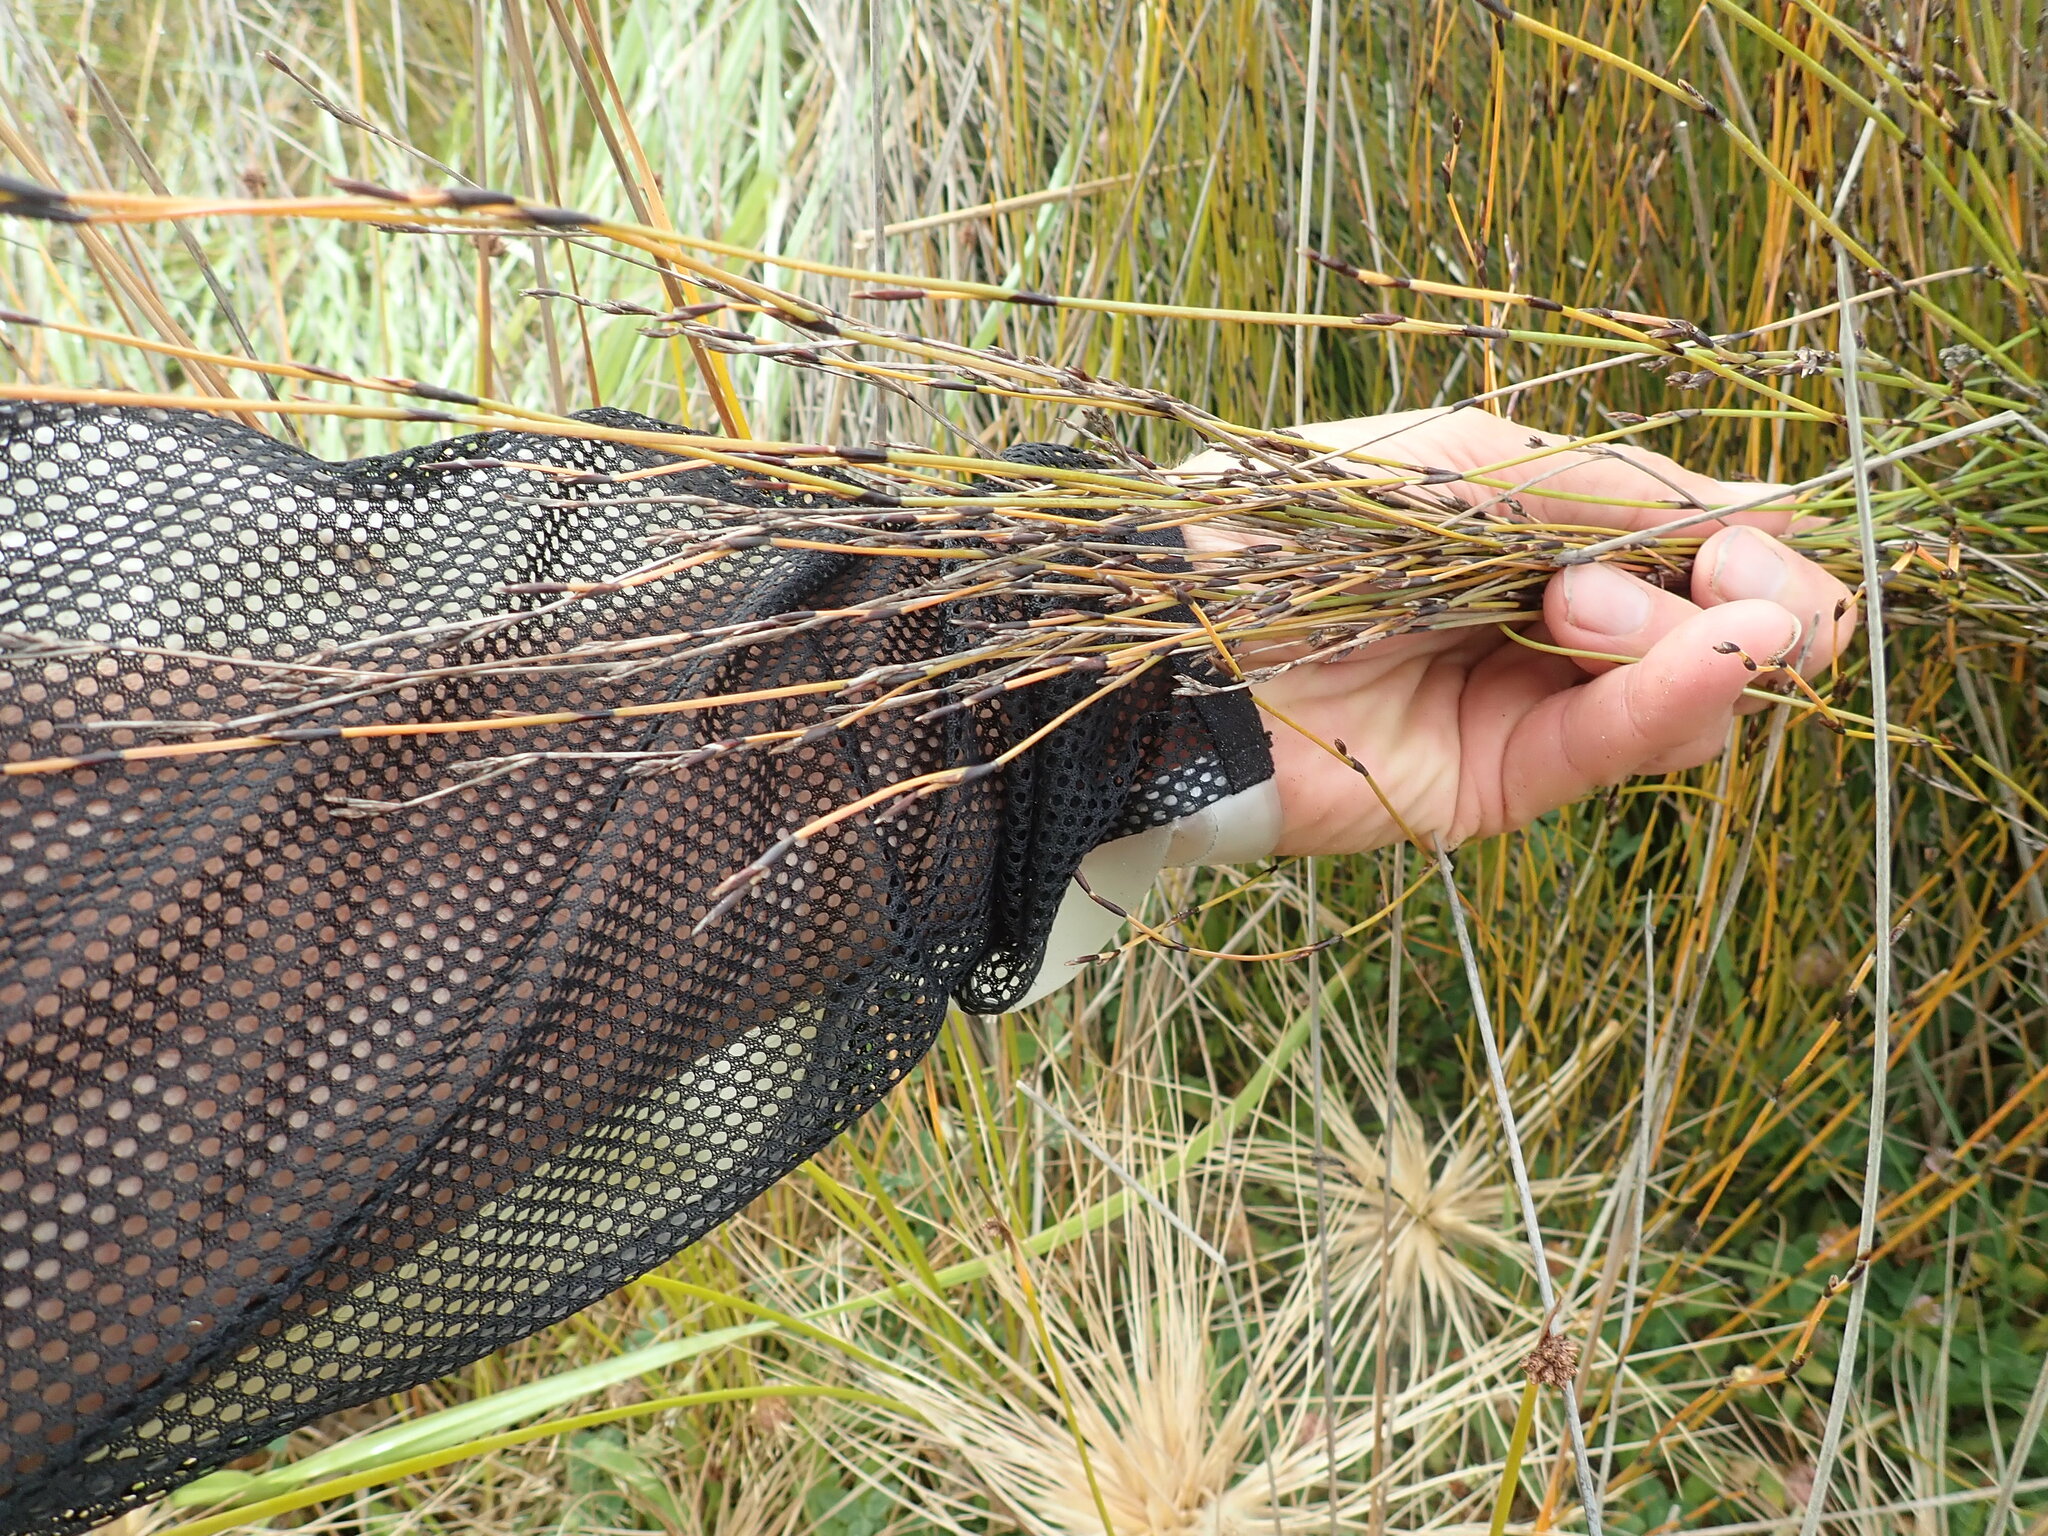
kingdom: Plantae
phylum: Tracheophyta
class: Liliopsida
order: Poales
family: Restionaceae
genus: Apodasmia
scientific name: Apodasmia similis
